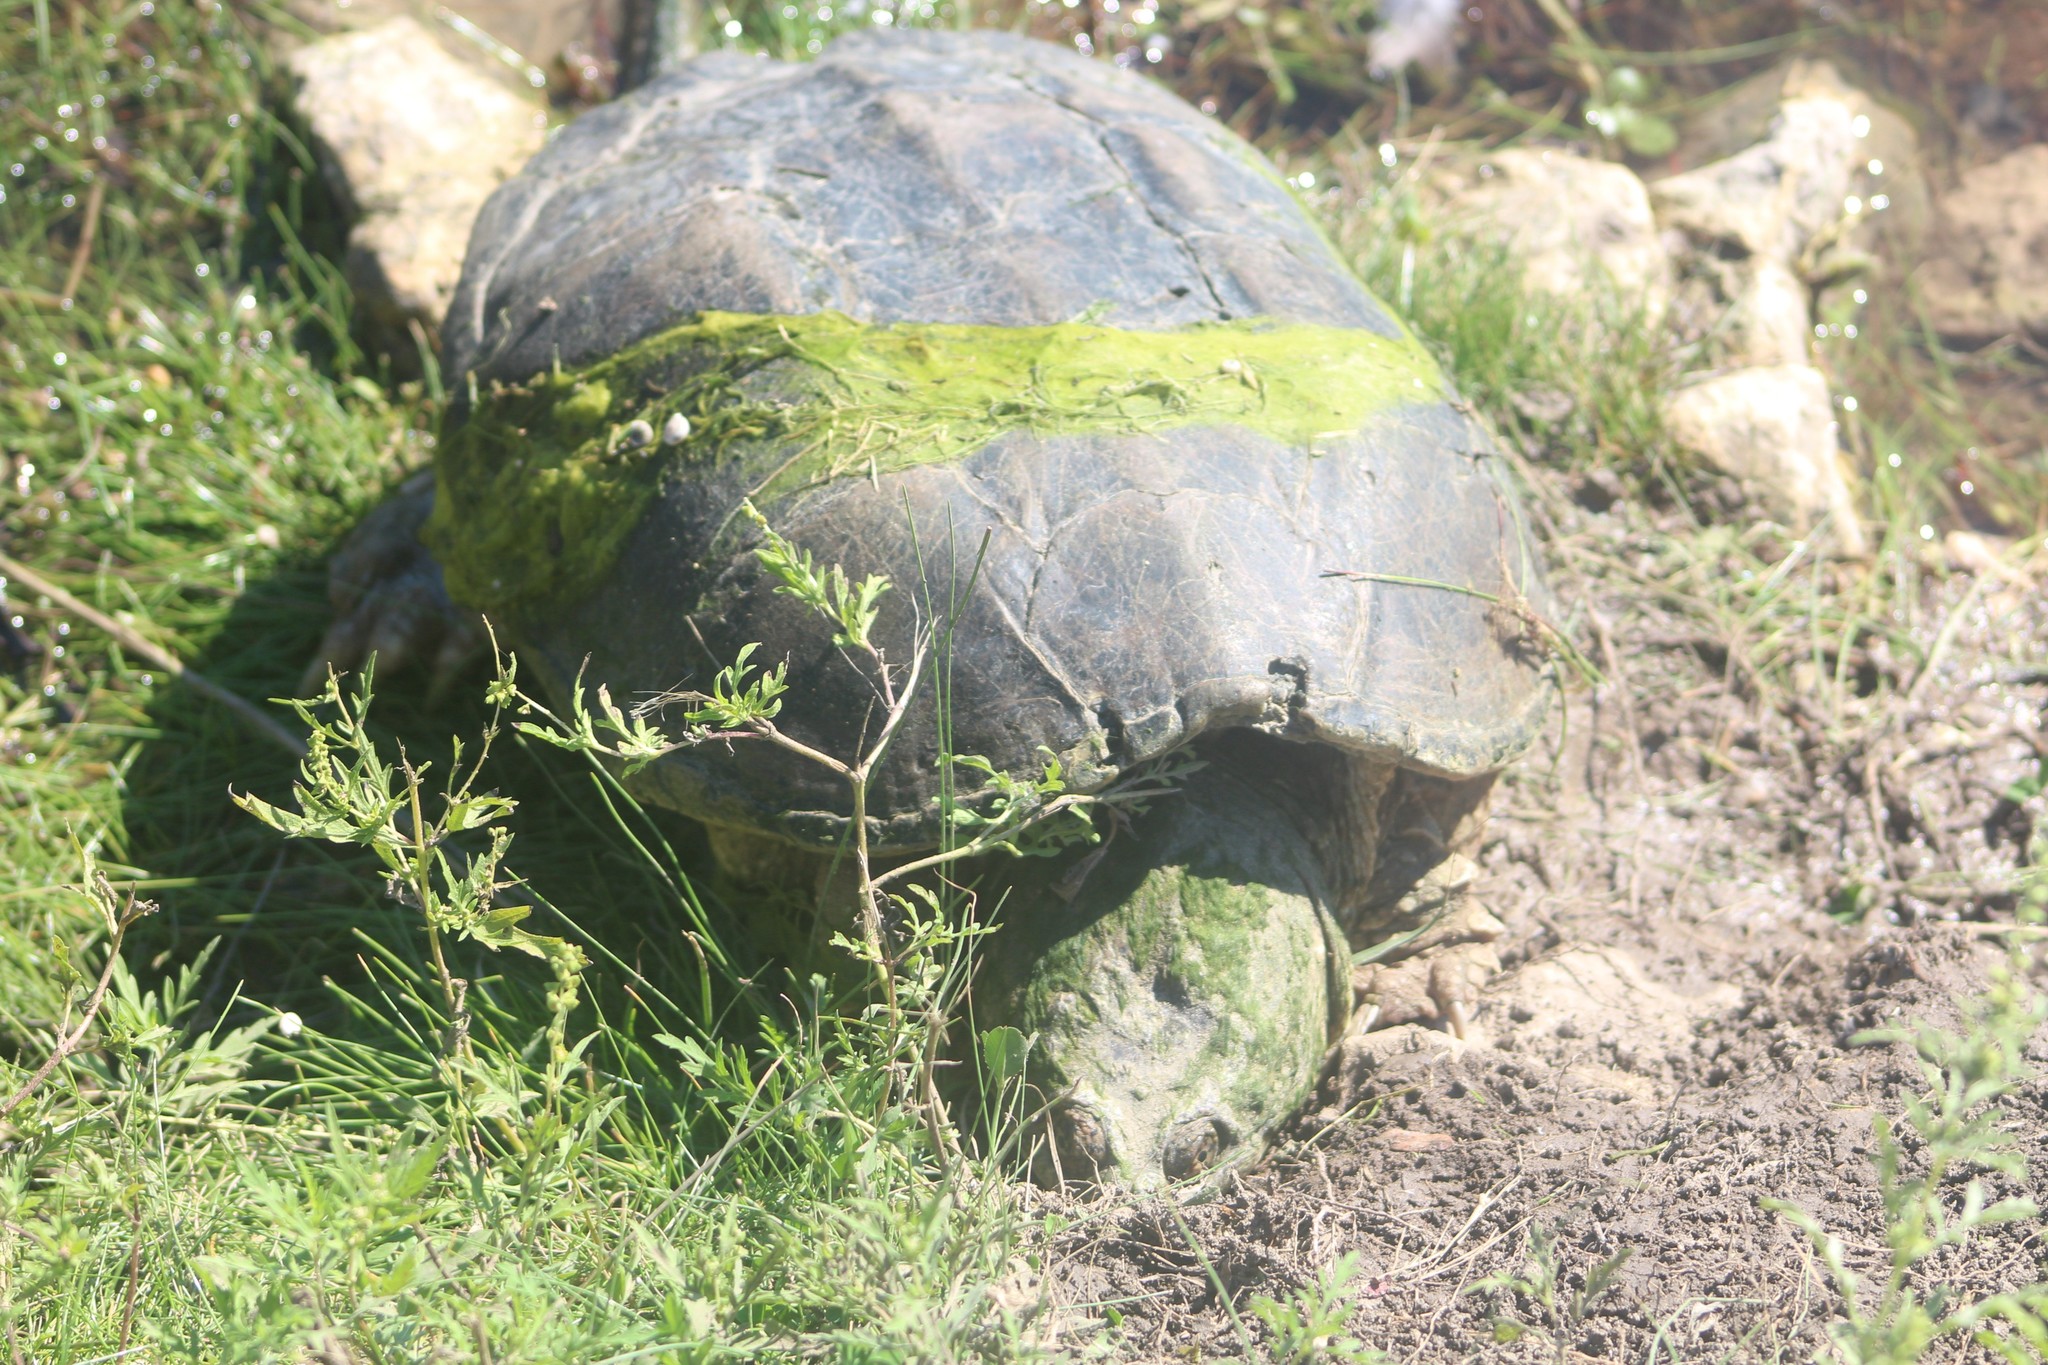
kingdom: Animalia
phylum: Chordata
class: Testudines
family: Chelydridae
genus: Chelydra
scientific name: Chelydra serpentina
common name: Common snapping turtle
